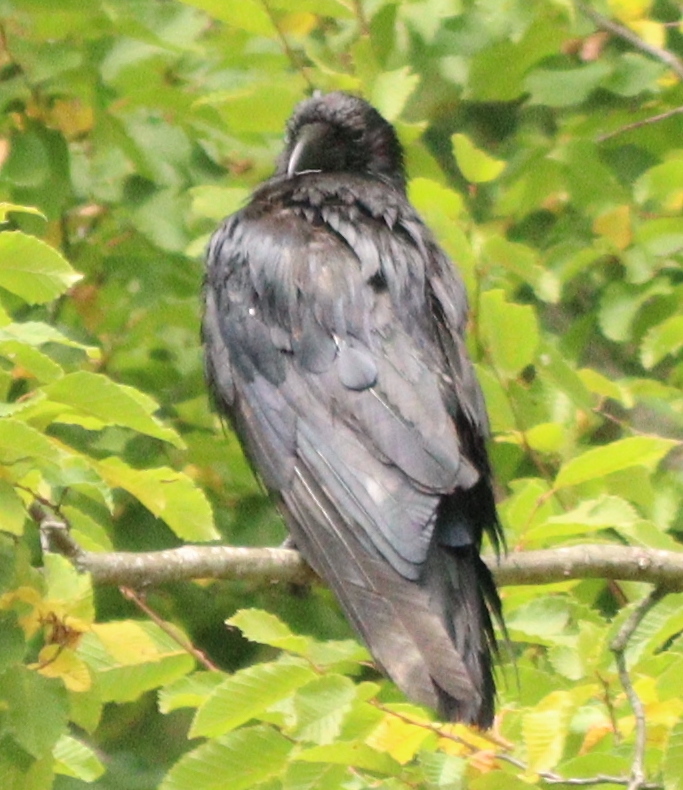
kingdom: Animalia
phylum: Chordata
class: Aves
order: Passeriformes
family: Corvidae
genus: Corvus
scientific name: Corvus corone
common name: Carrion crow
